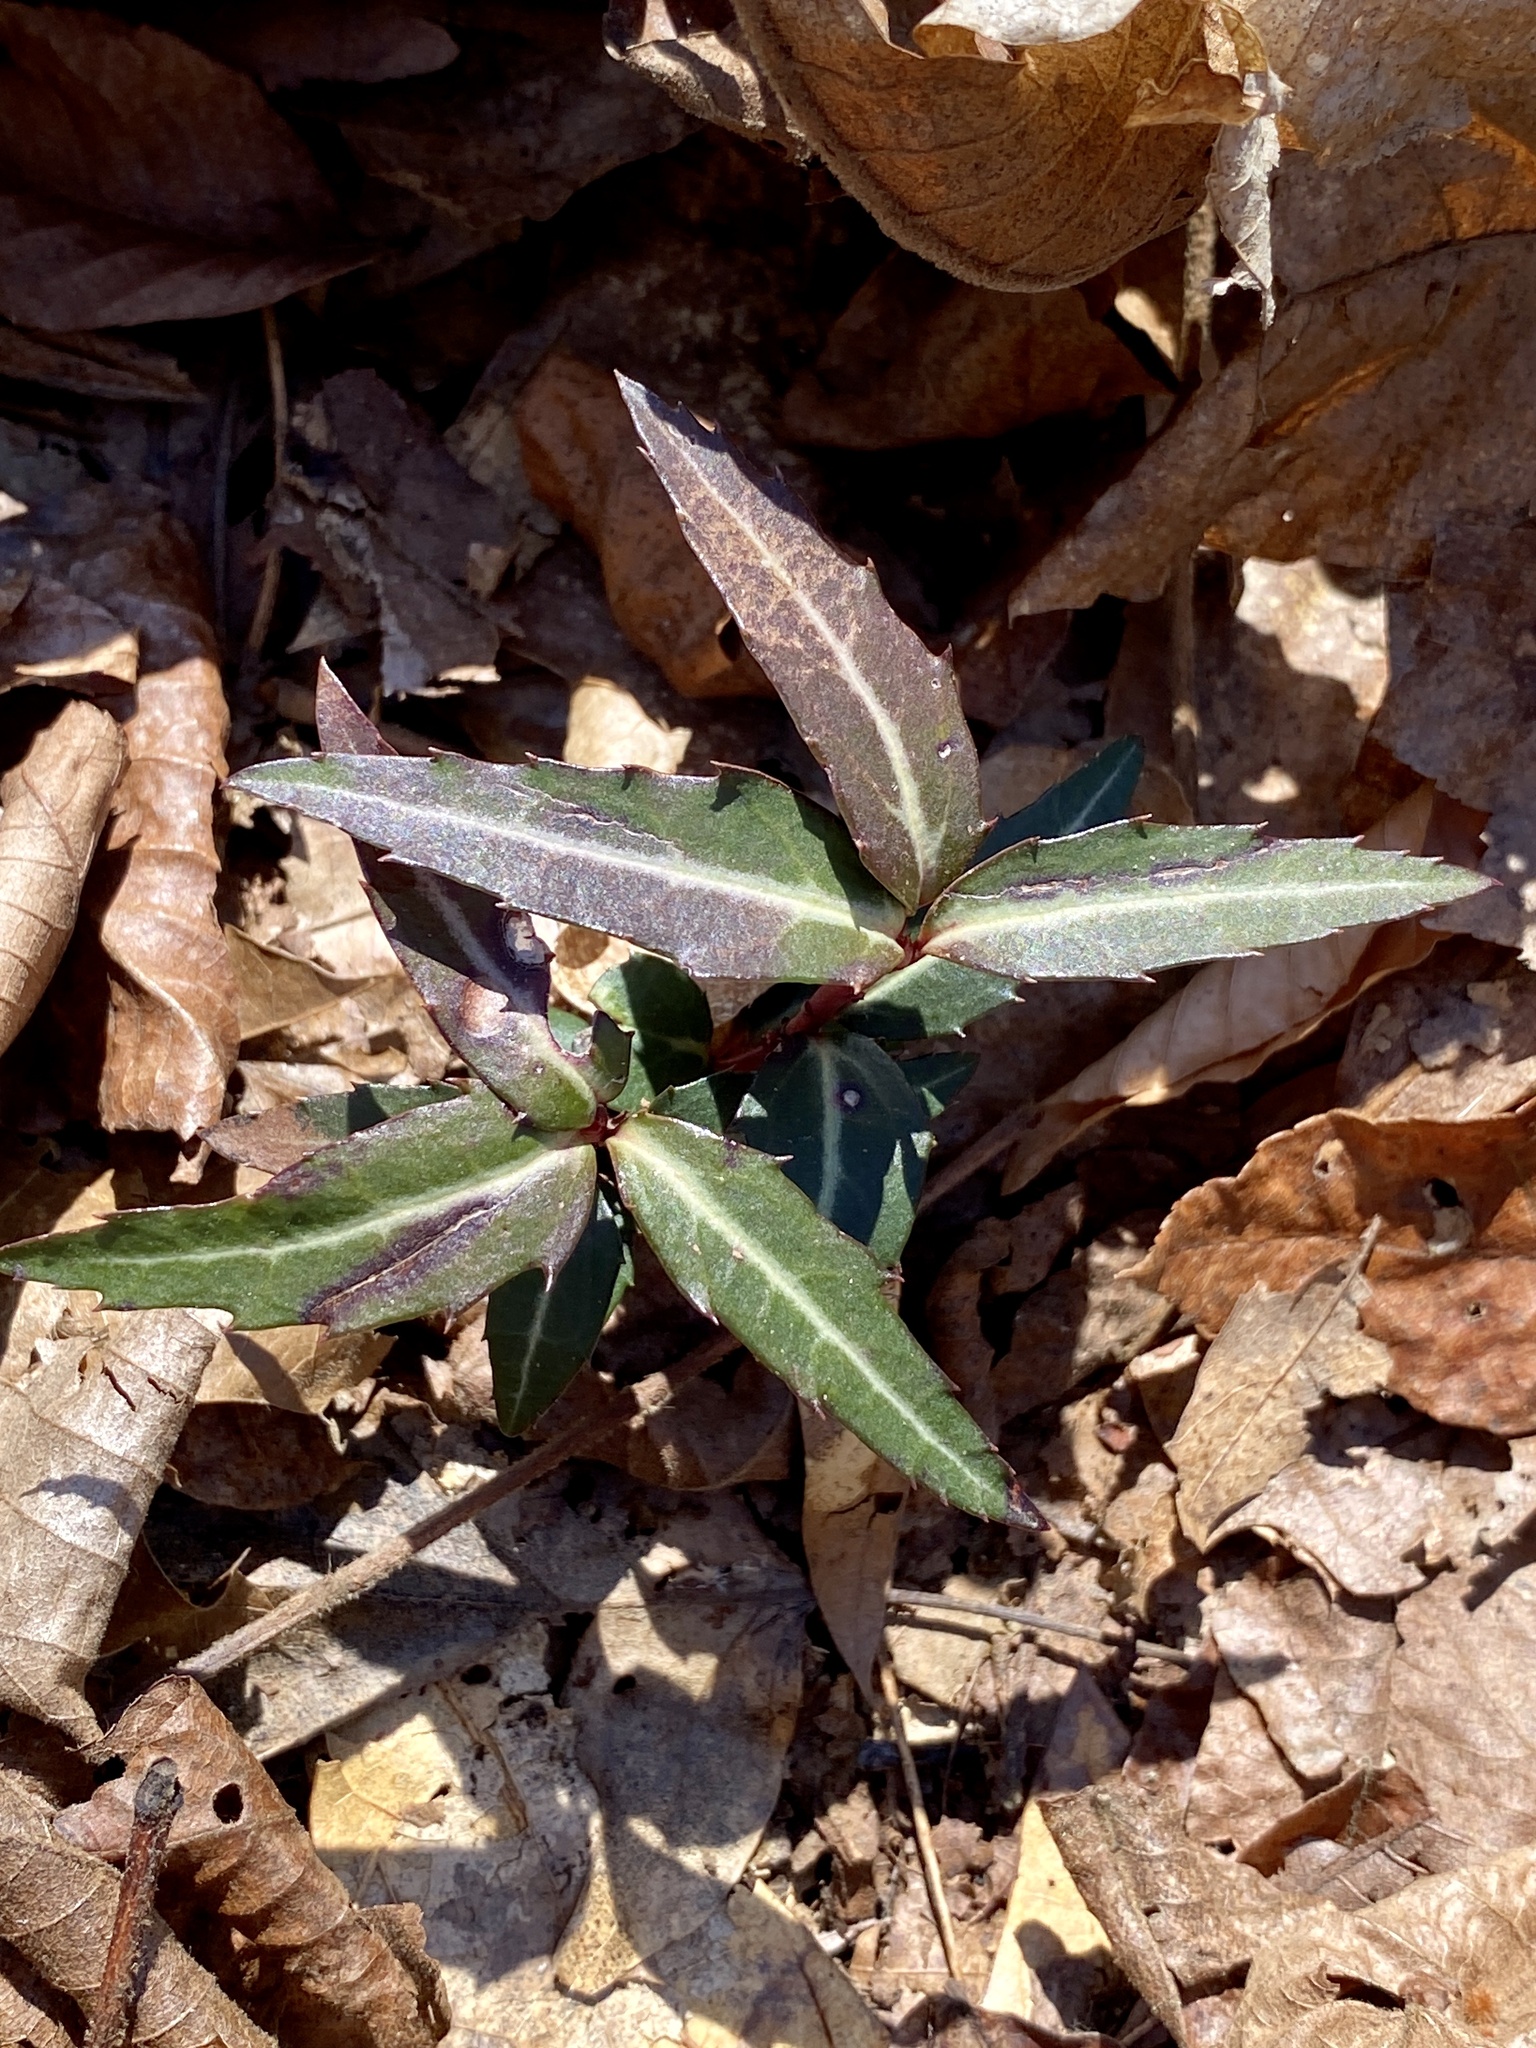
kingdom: Plantae
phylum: Tracheophyta
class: Magnoliopsida
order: Ericales
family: Ericaceae
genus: Chimaphila
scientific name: Chimaphila maculata
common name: Spotted pipsissewa
